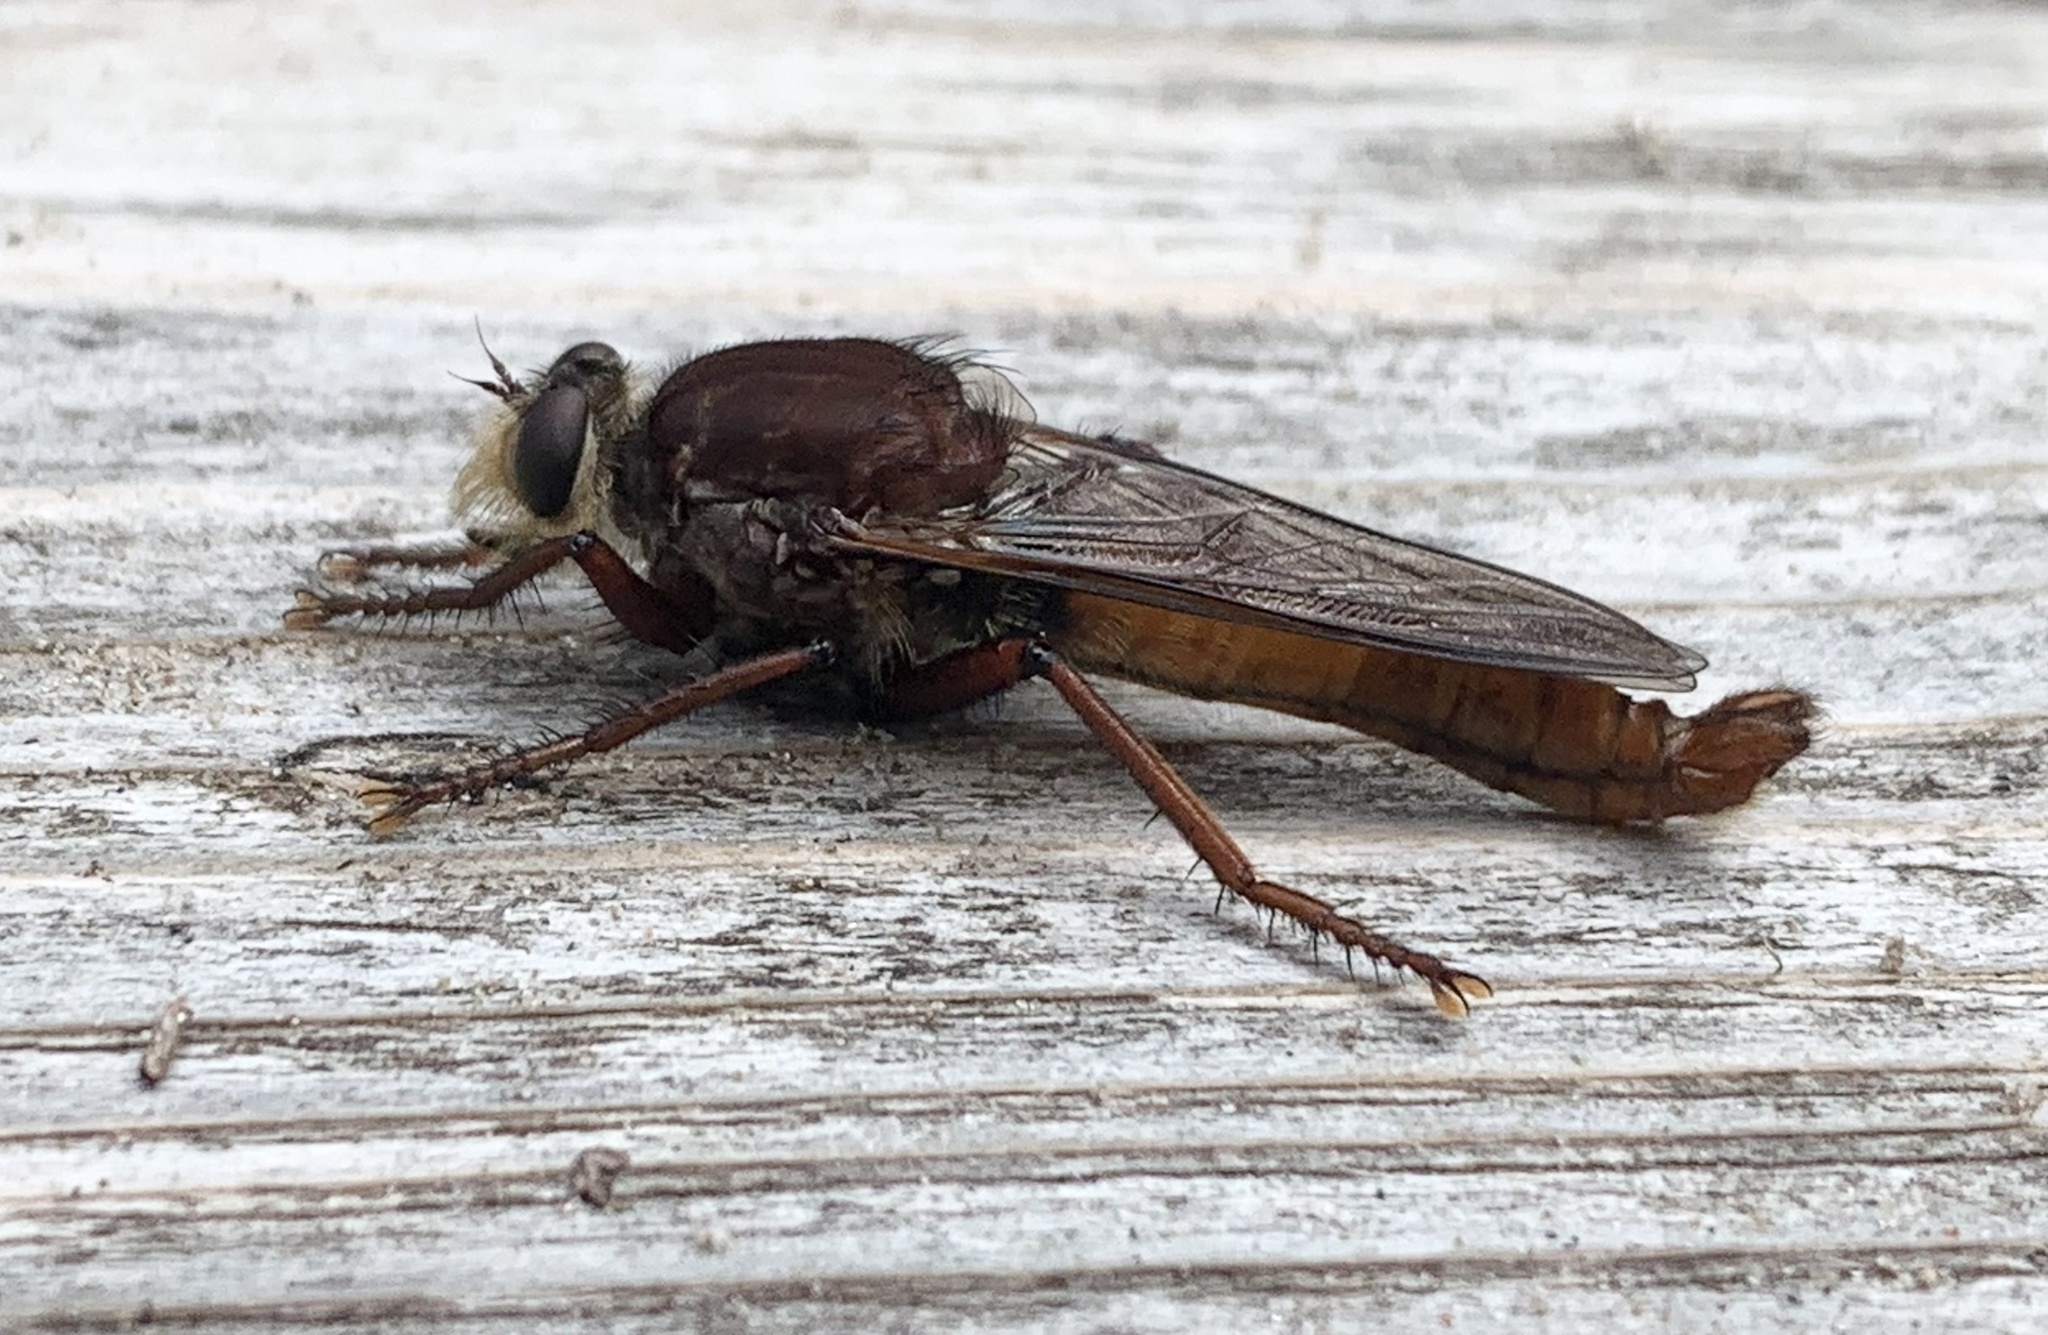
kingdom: Animalia
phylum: Arthropoda
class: Insecta
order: Diptera
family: Asilidae
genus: Proctacanthus
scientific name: Proctacanthus hinei
